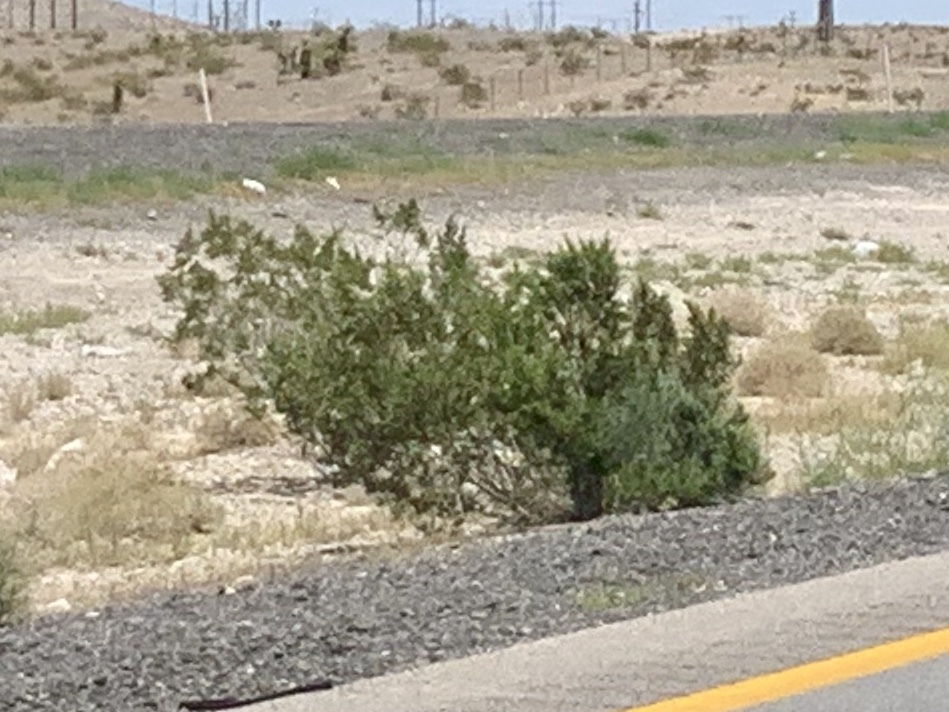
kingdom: Plantae
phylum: Tracheophyta
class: Magnoliopsida
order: Zygophyllales
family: Zygophyllaceae
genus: Larrea
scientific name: Larrea tridentata
